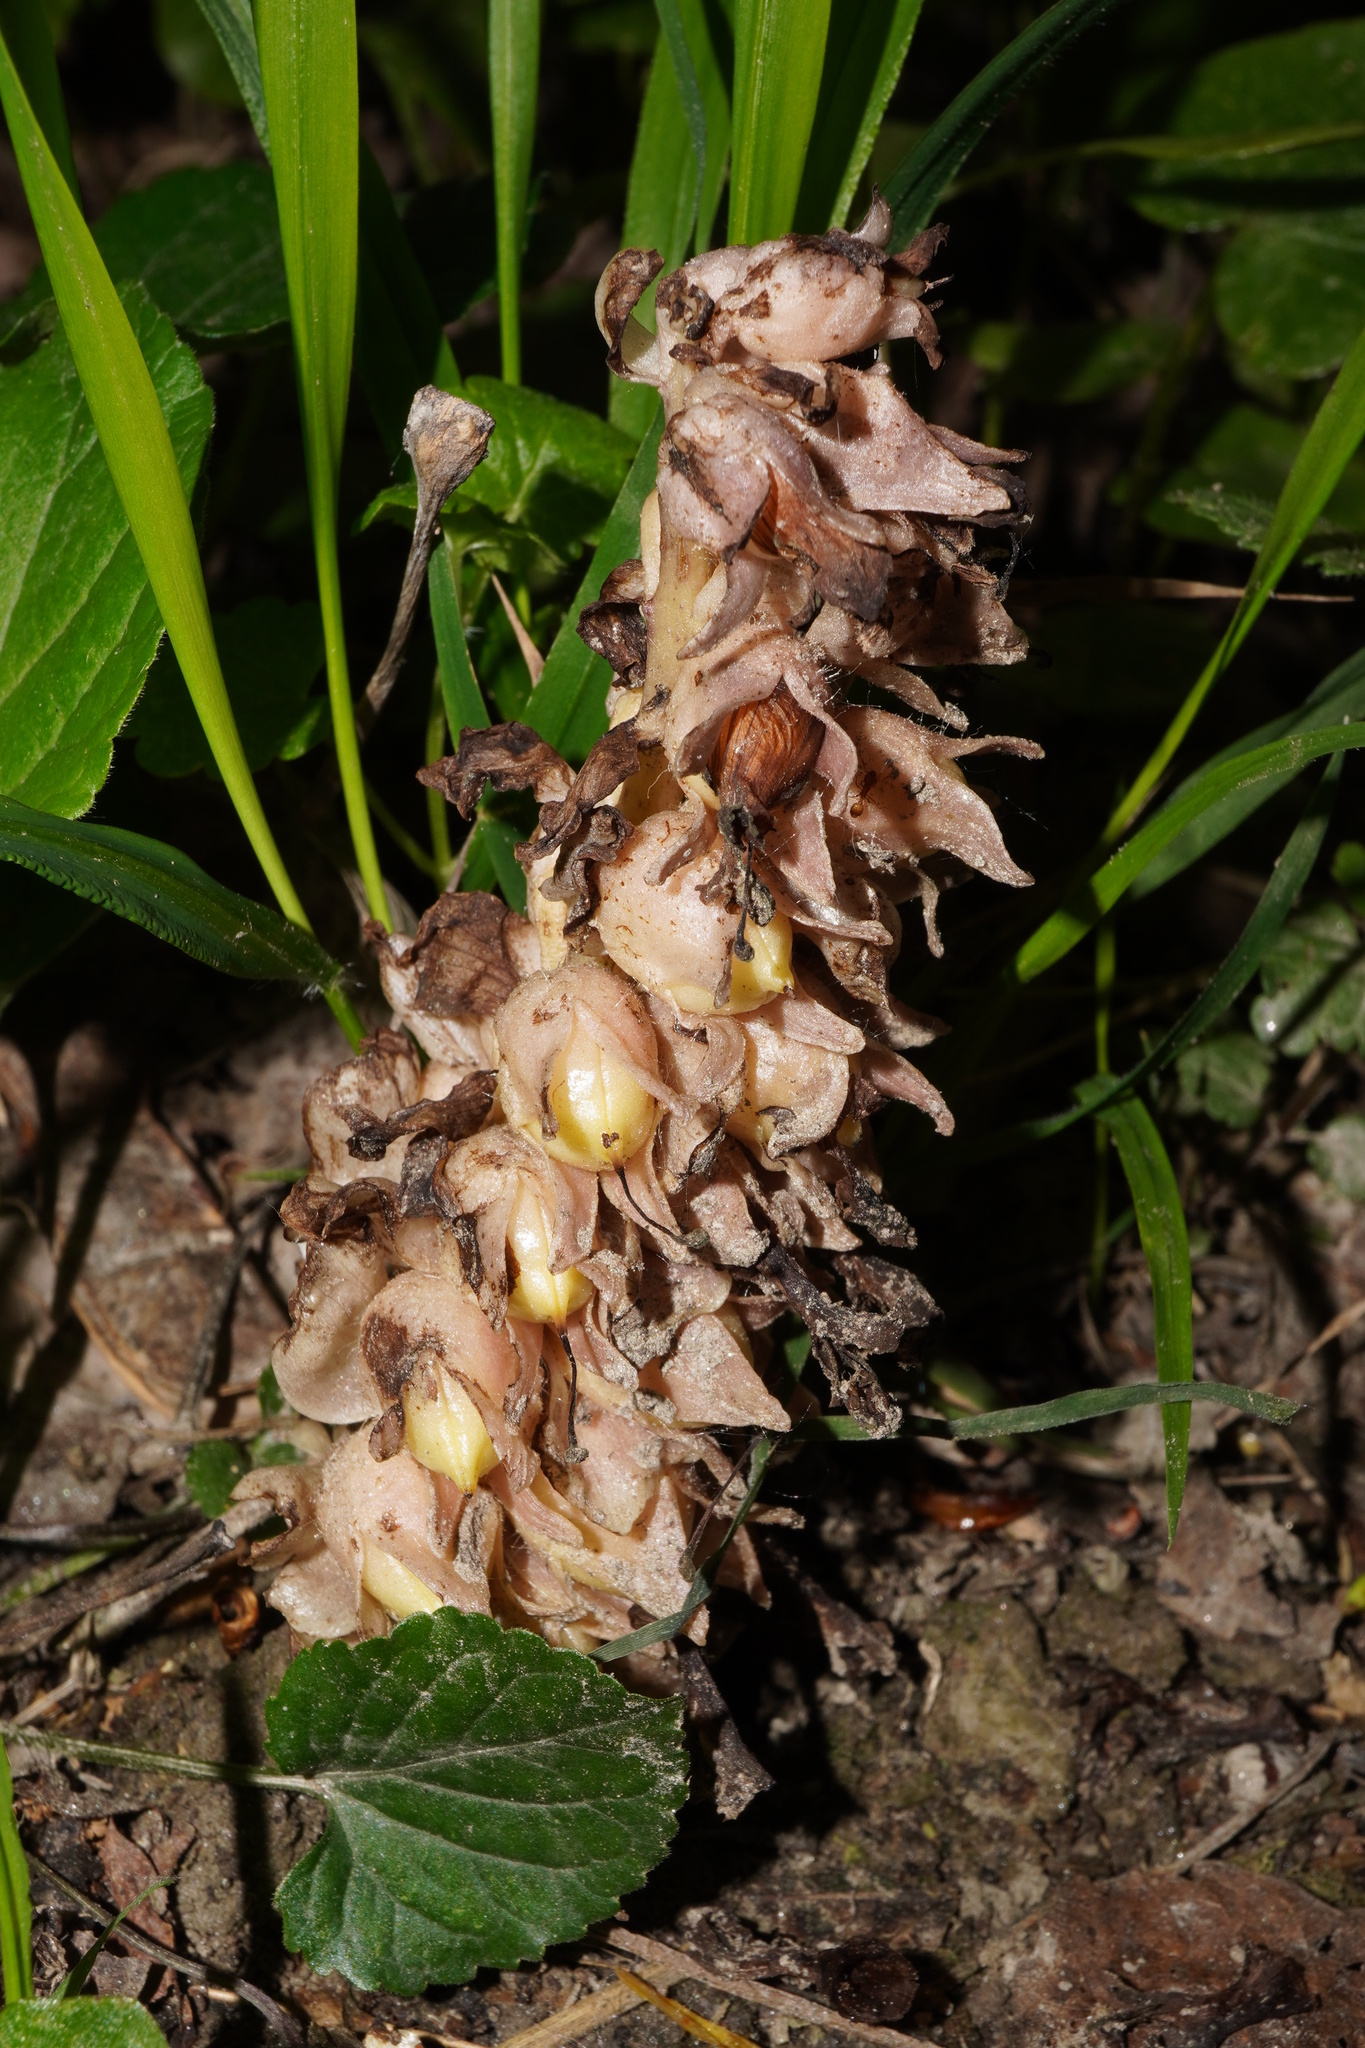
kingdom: Plantae
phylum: Tracheophyta
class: Magnoliopsida
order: Lamiales
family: Orobanchaceae
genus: Lathraea
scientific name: Lathraea squamaria
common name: Toothwort
